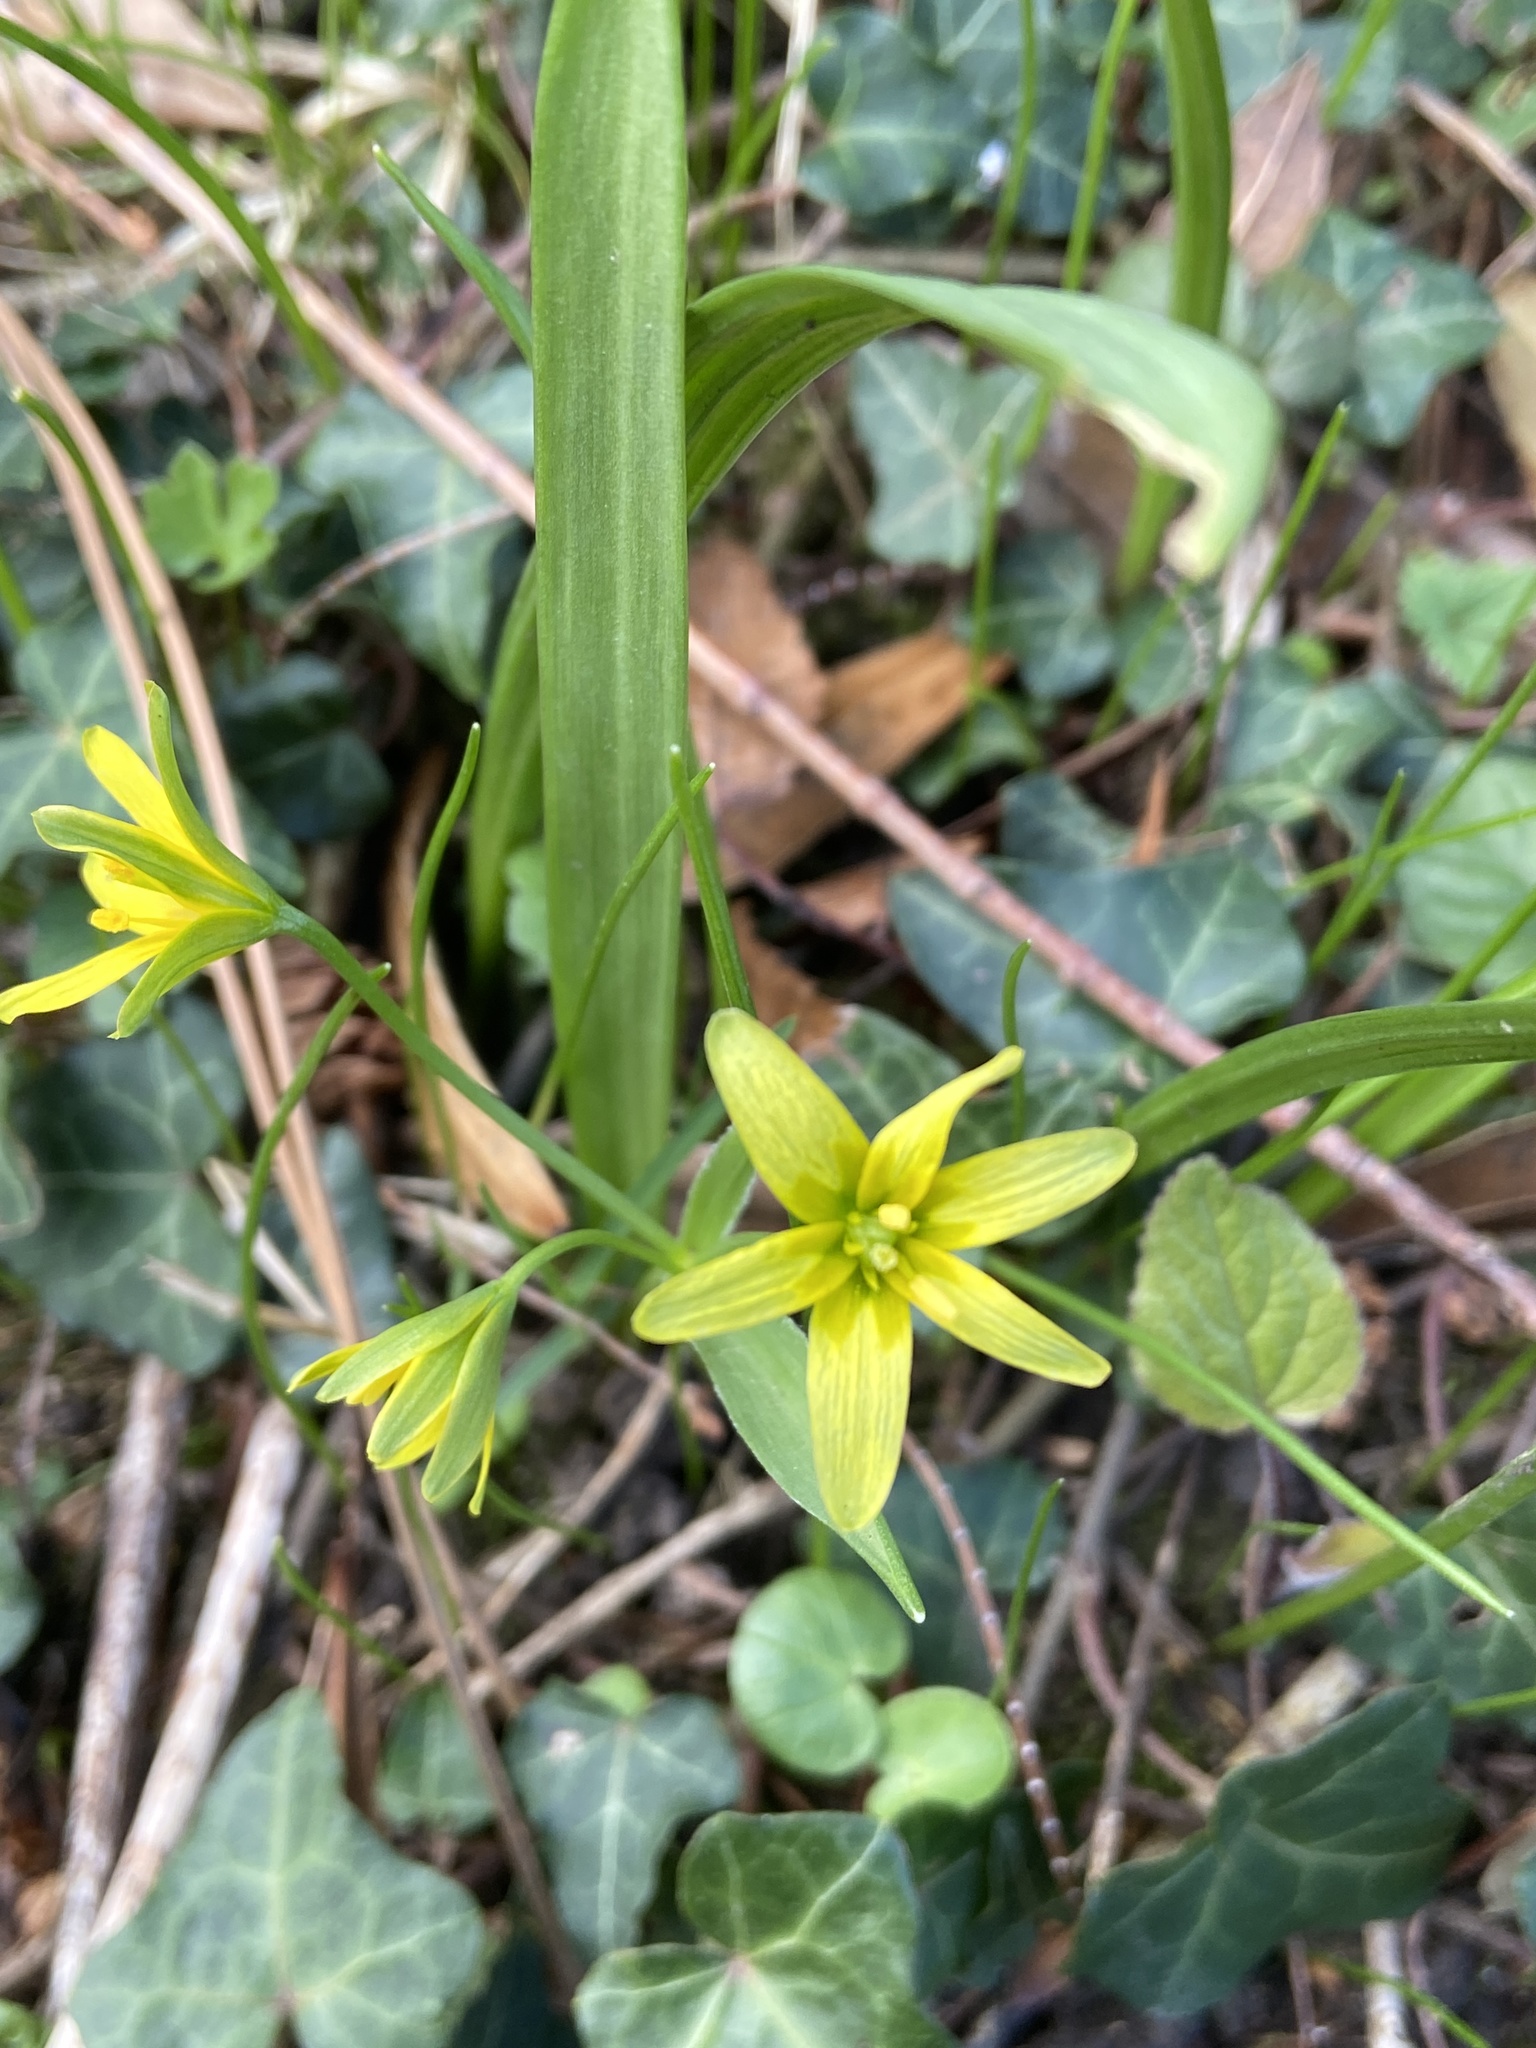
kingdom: Plantae
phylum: Tracheophyta
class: Liliopsida
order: Liliales
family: Liliaceae
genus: Gagea
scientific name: Gagea lutea
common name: Yellow star-of-bethlehem
